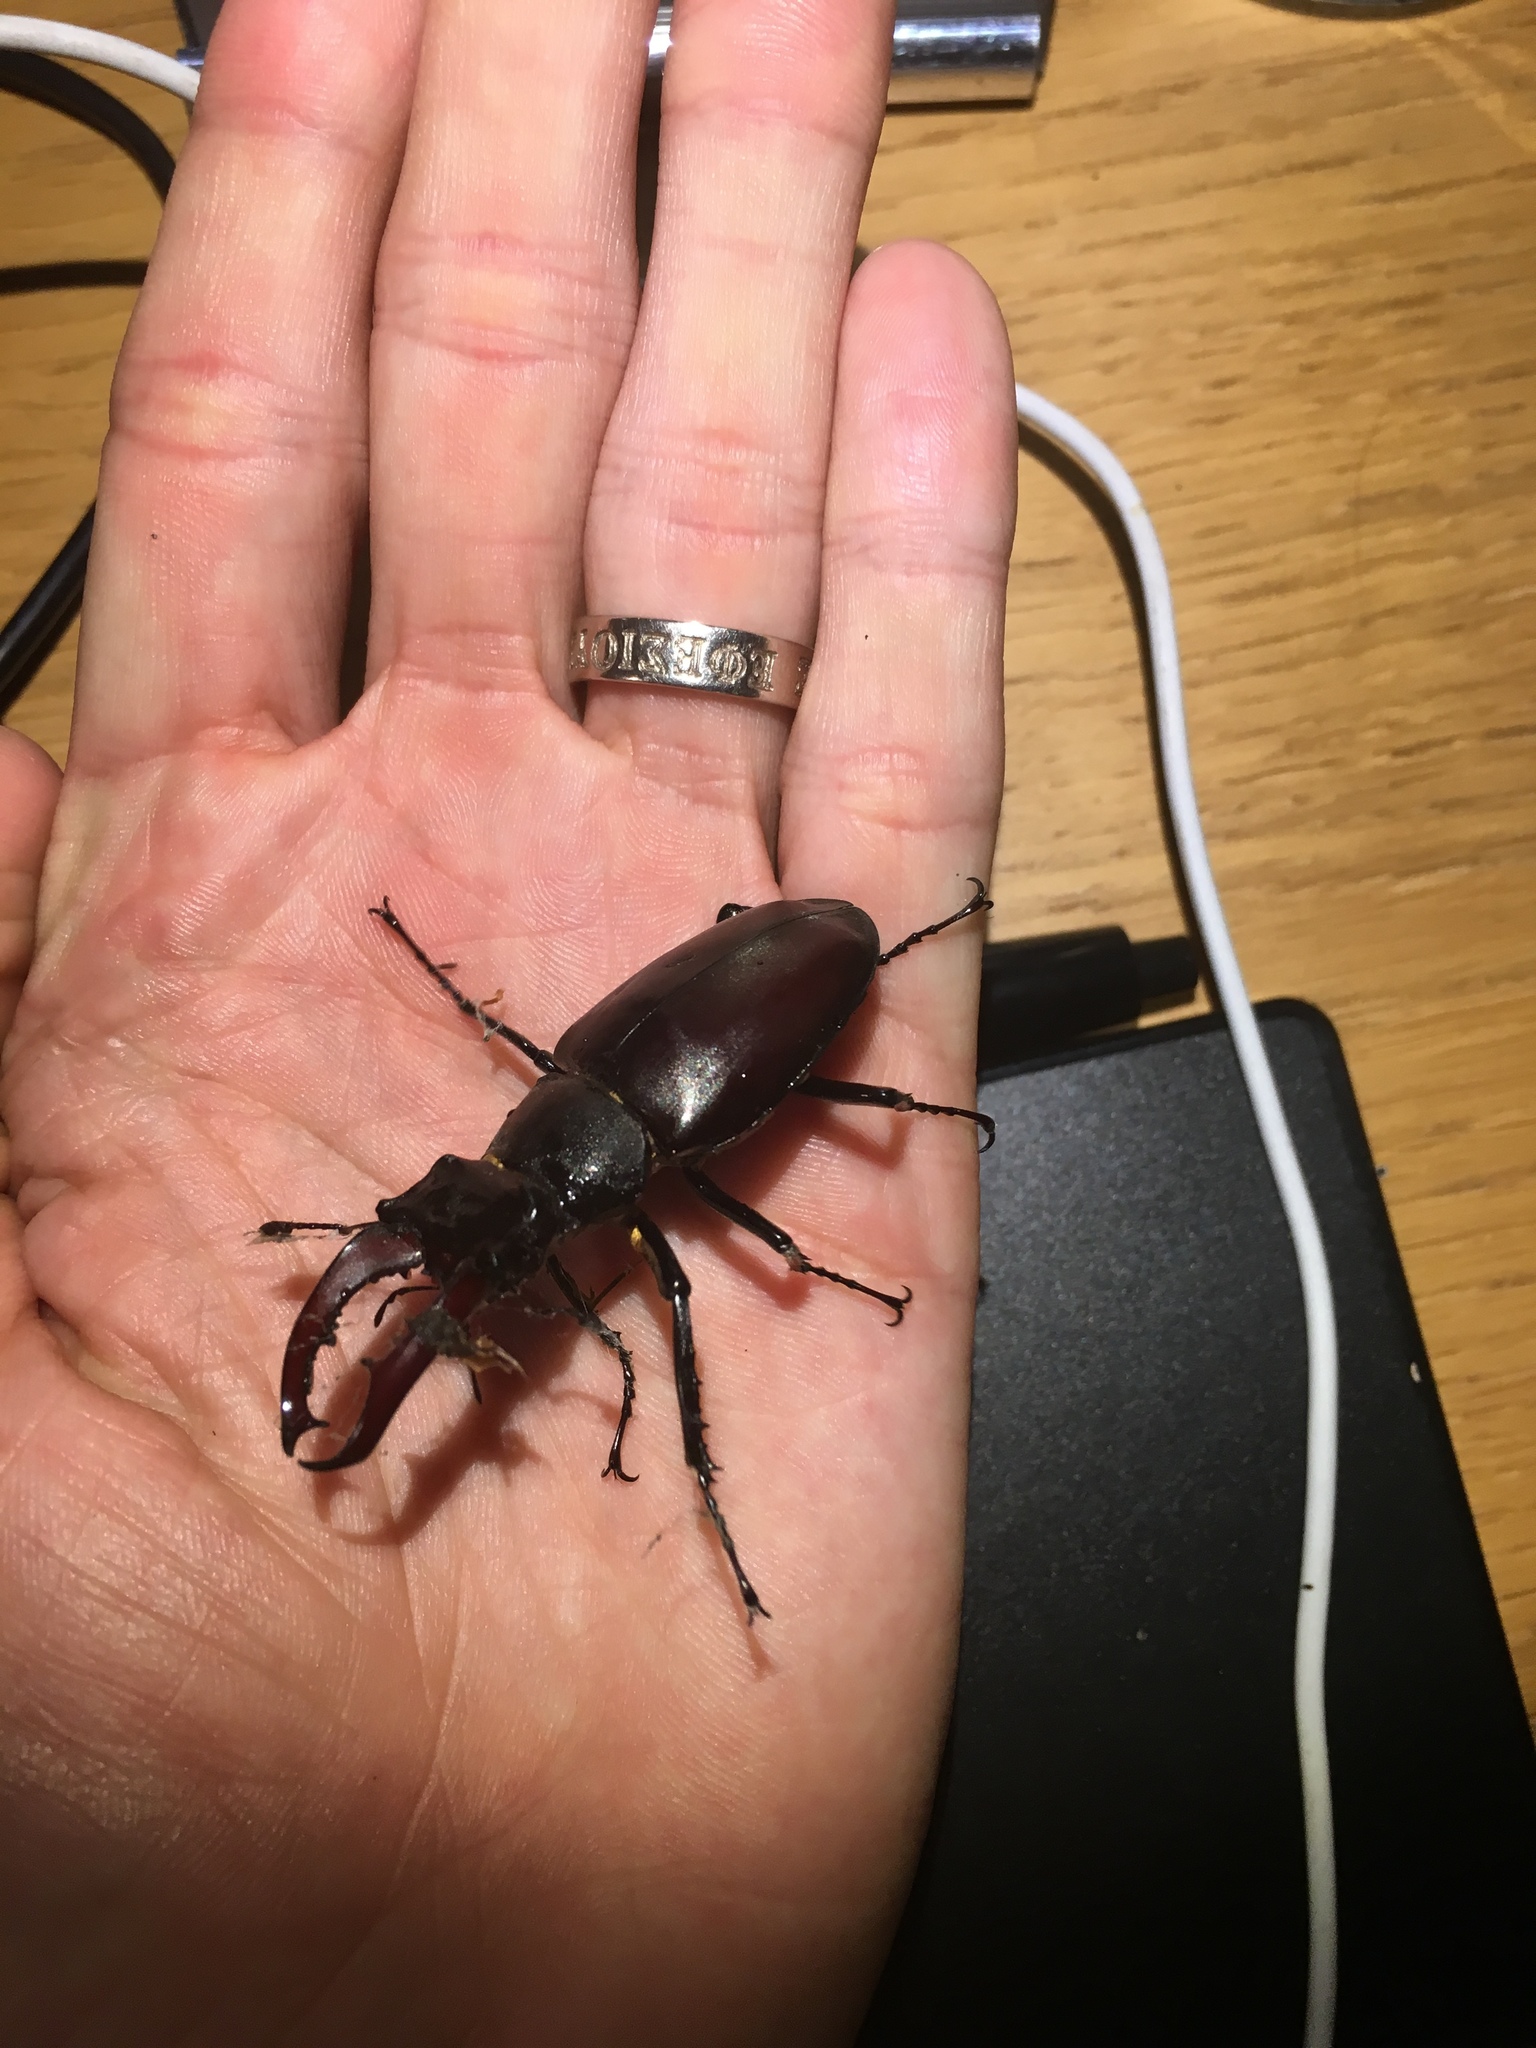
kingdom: Animalia
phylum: Arthropoda
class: Insecta
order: Coleoptera
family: Lucanidae
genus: Lucanus
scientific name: Lucanus cervus
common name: Stag beetle
